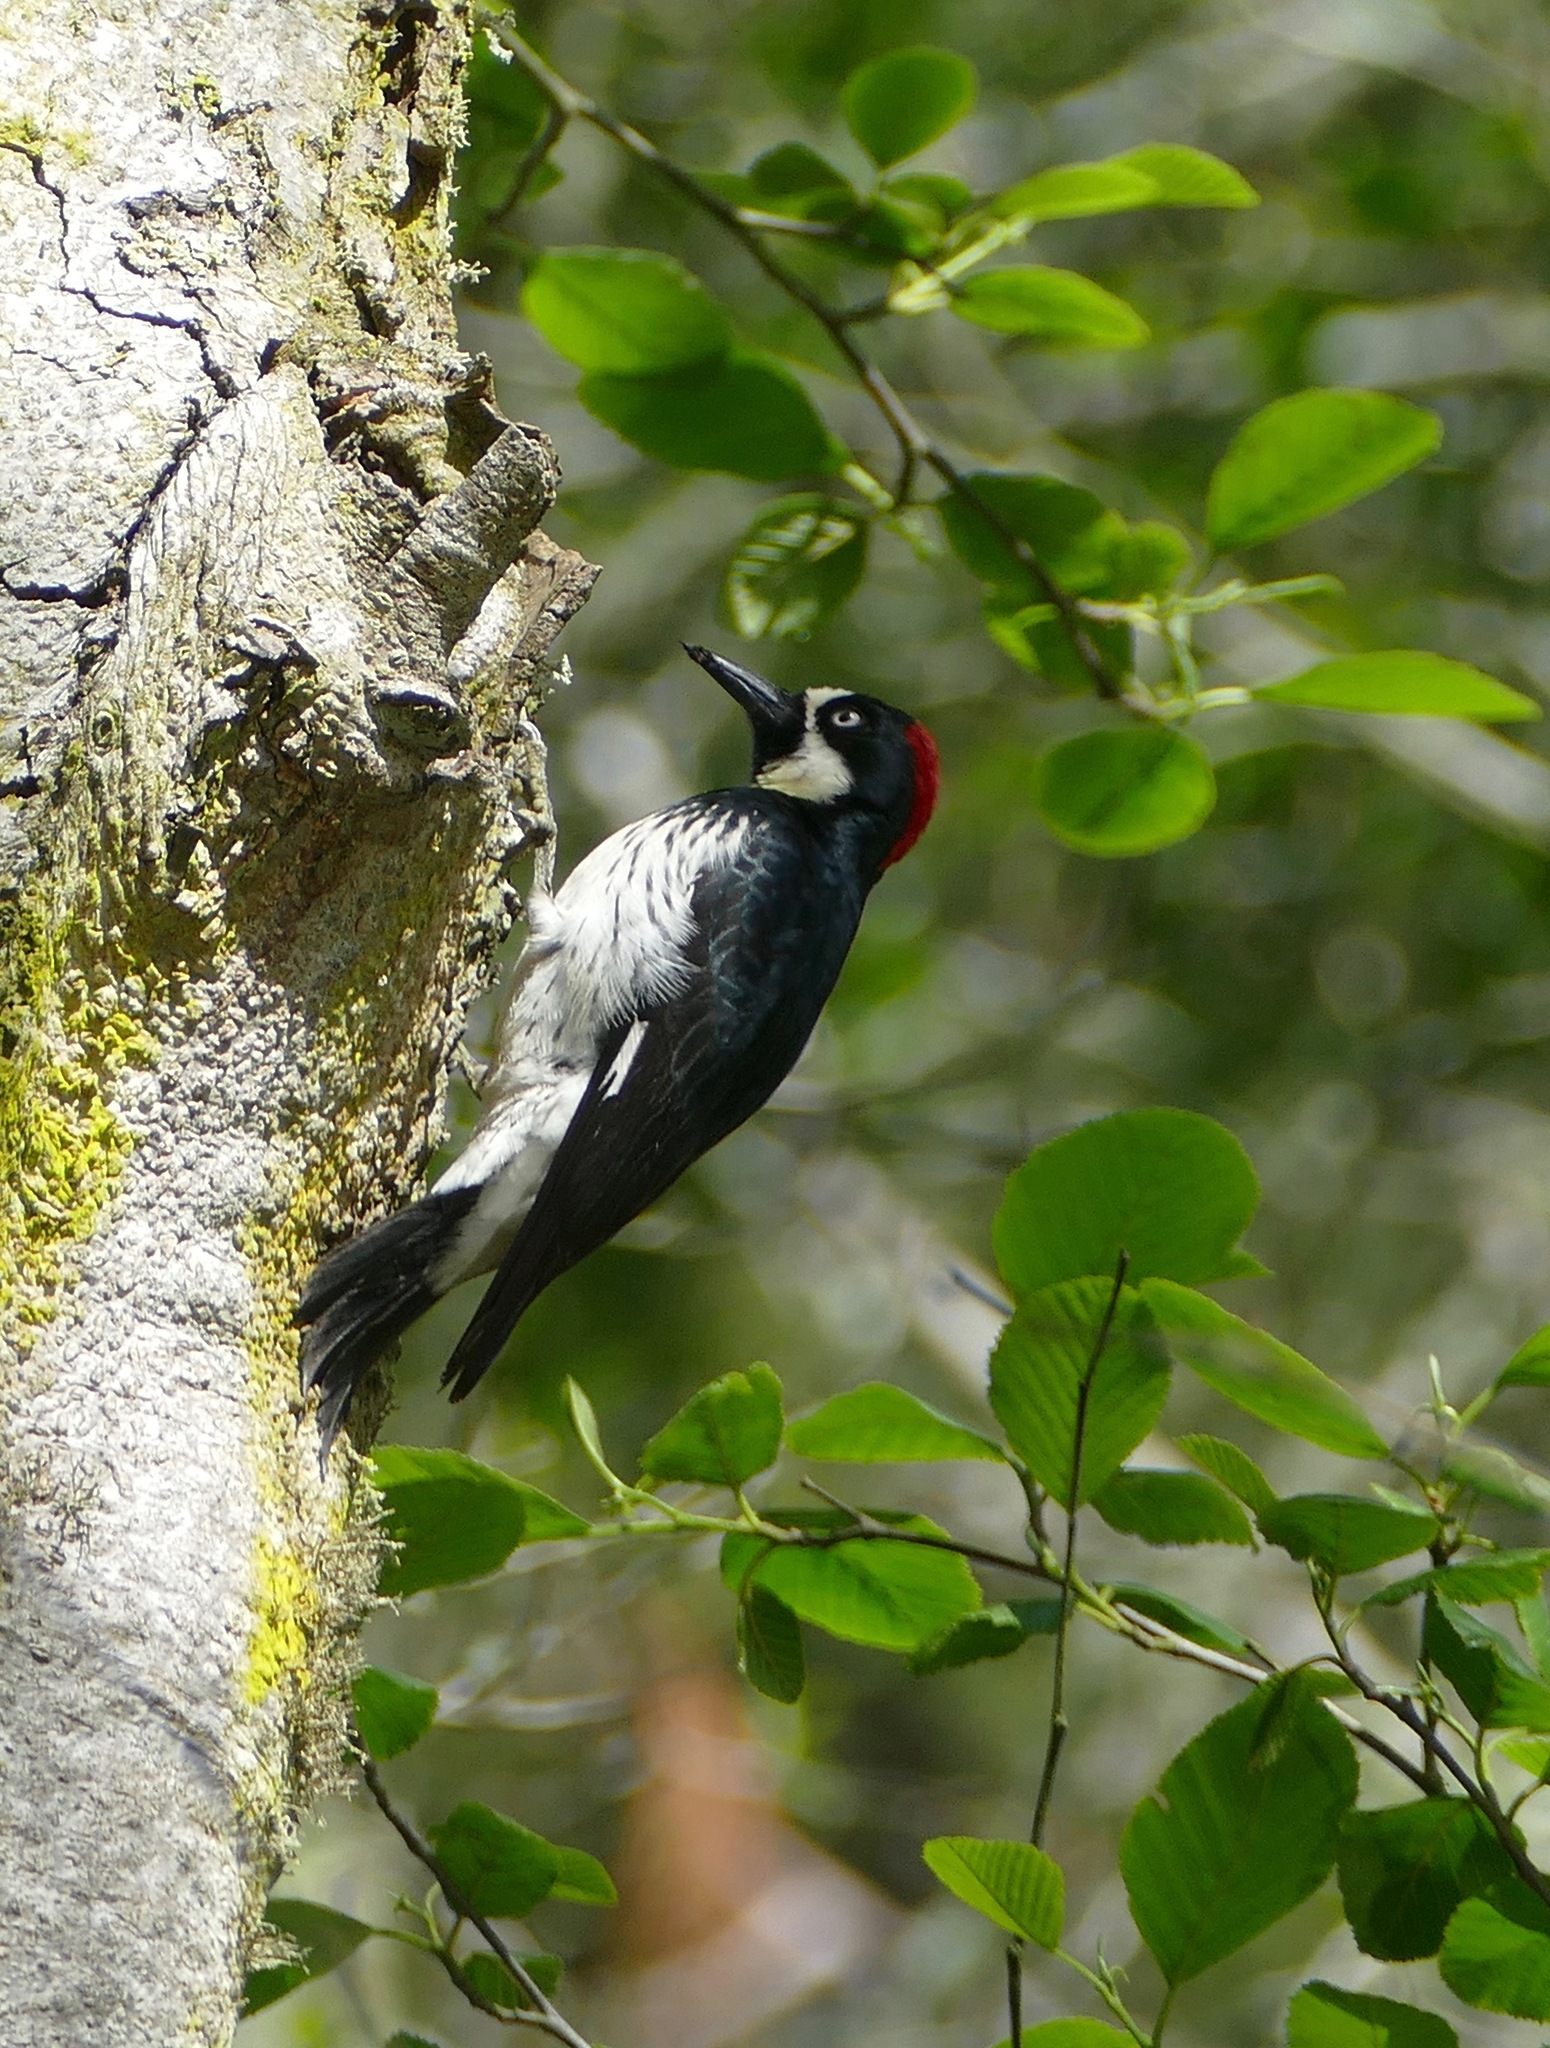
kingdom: Animalia
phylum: Chordata
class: Aves
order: Piciformes
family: Picidae
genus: Melanerpes
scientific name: Melanerpes formicivorus
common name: Acorn woodpecker
